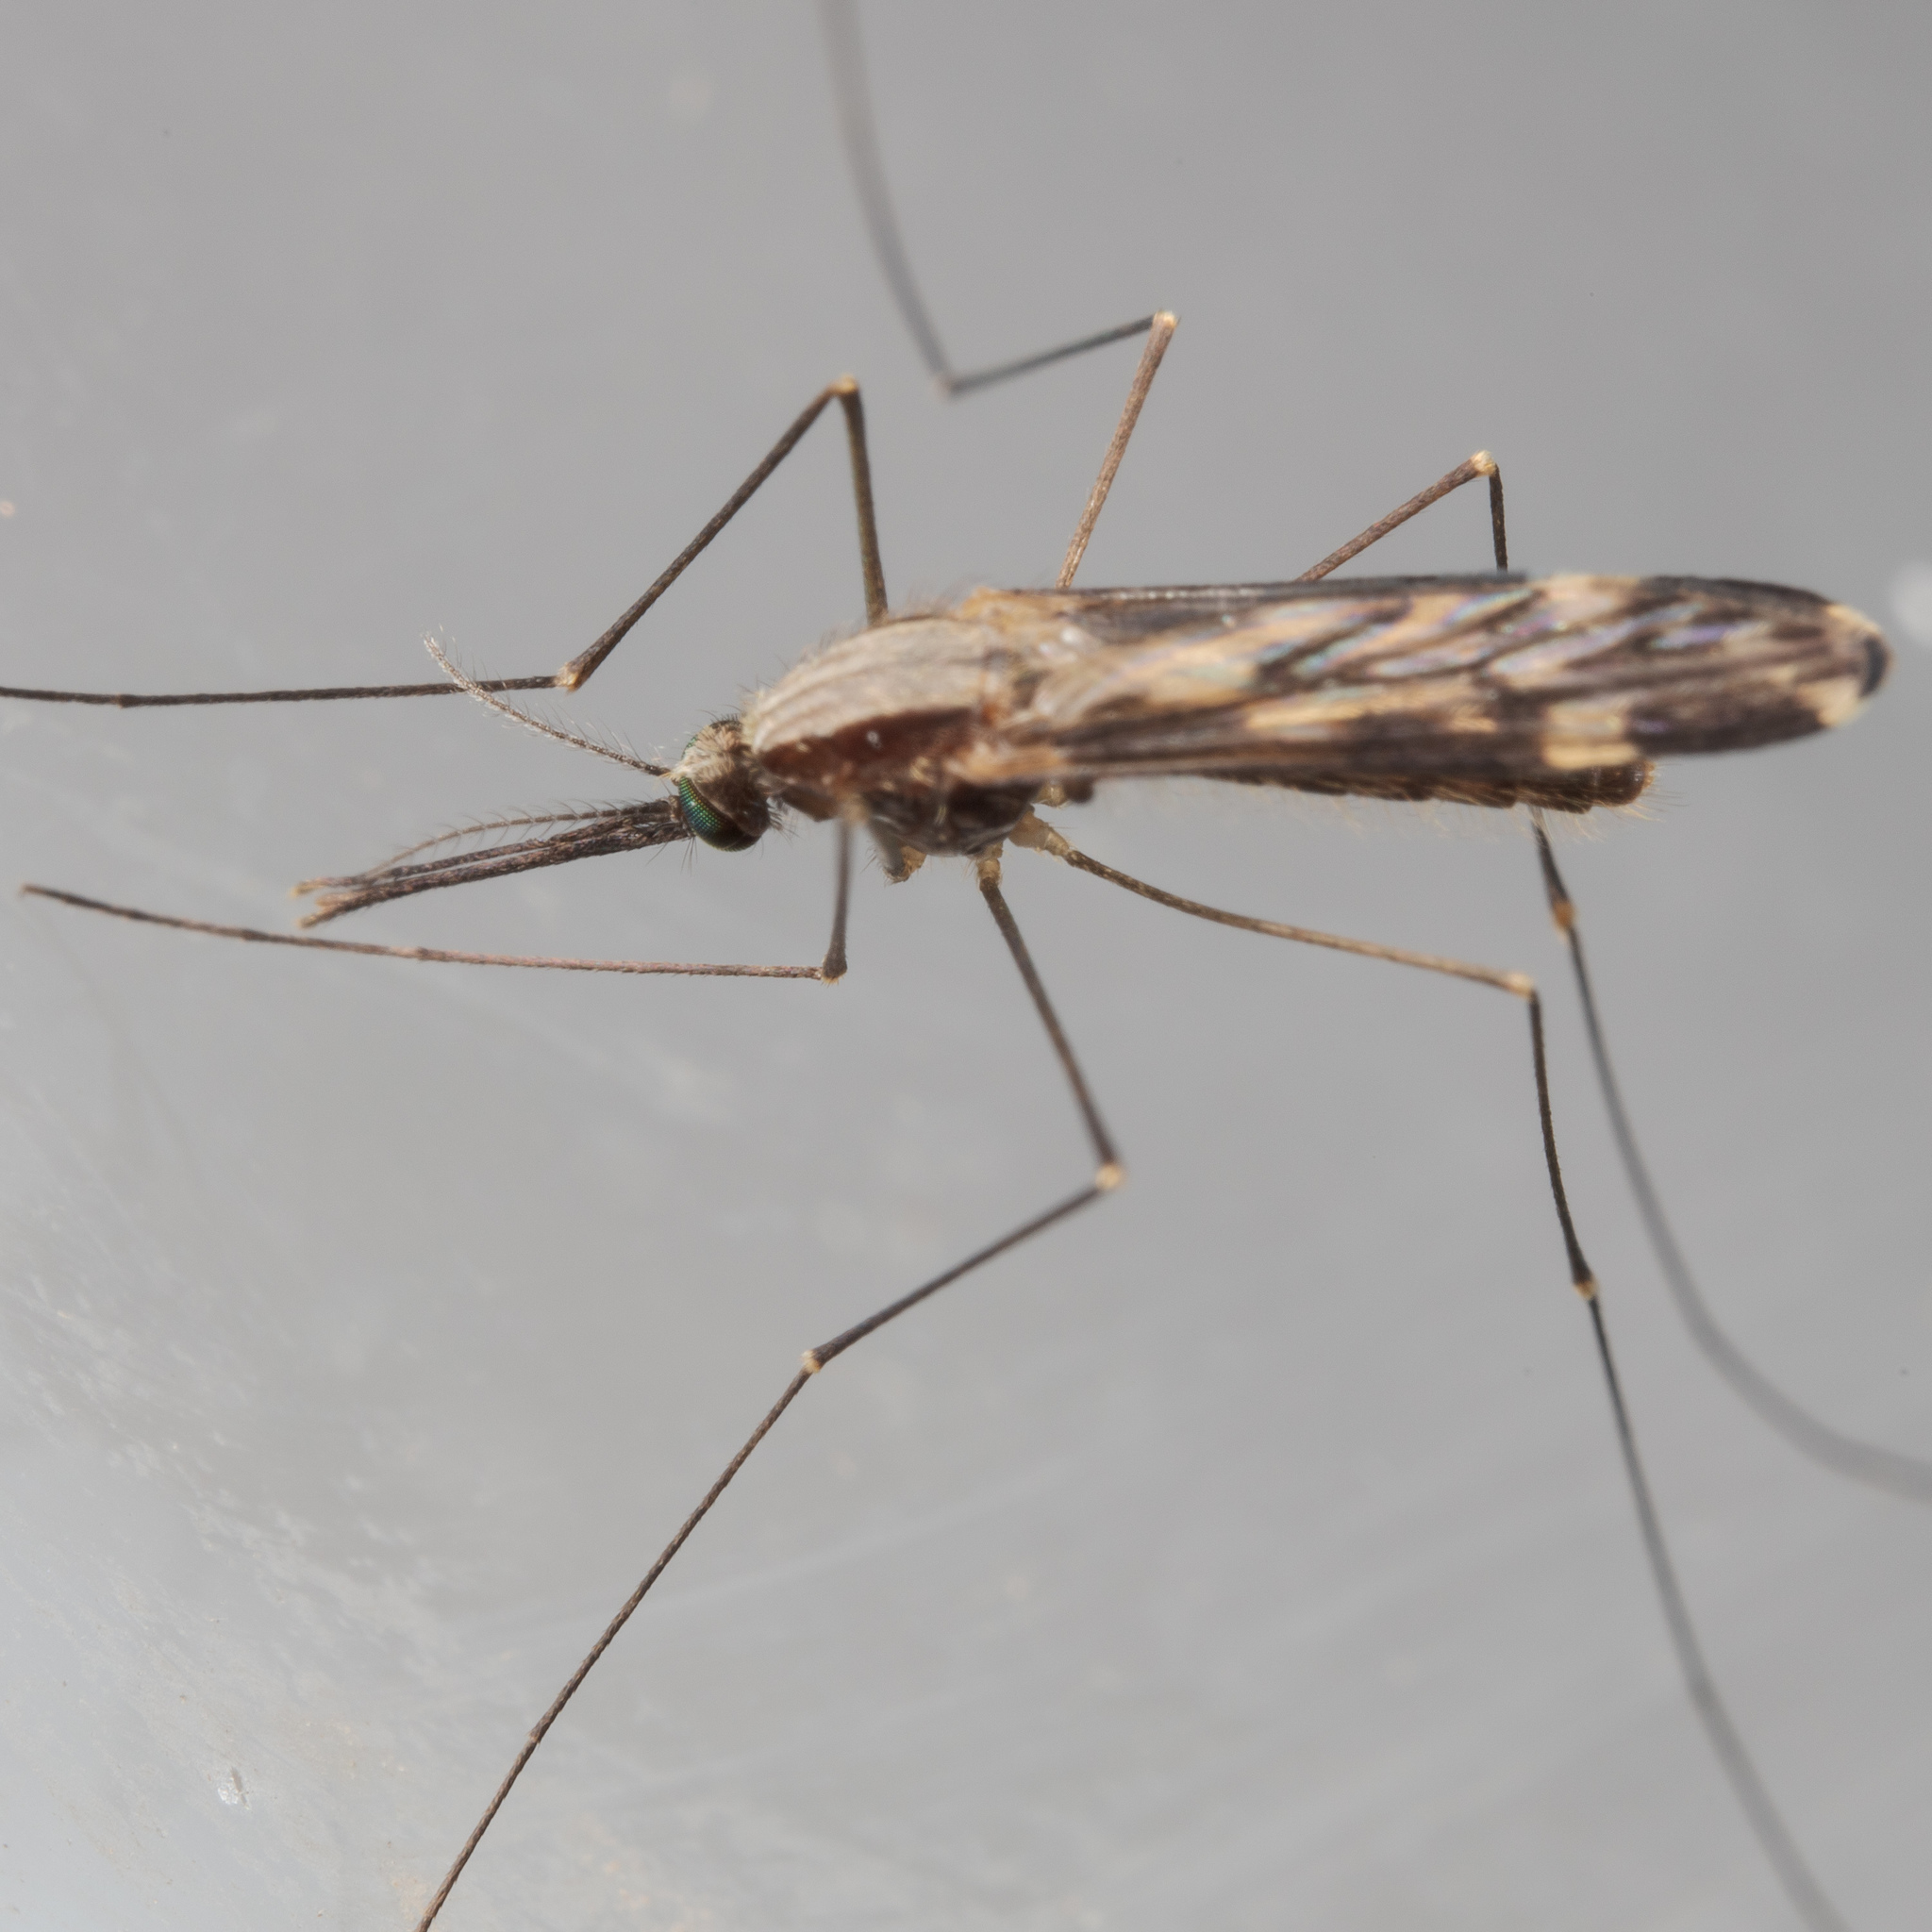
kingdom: Animalia
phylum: Arthropoda
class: Insecta
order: Diptera
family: Culicidae
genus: Anopheles
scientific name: Anopheles punctipennis
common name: Woodland malaria mosquito
